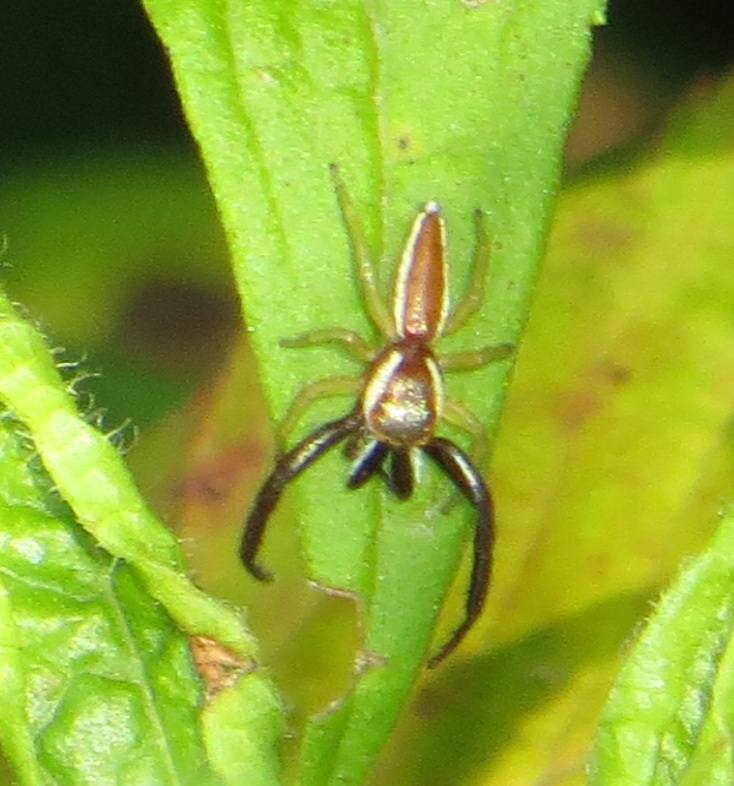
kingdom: Animalia
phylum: Arthropoda
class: Arachnida
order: Araneae
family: Salticidae
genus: Hentzia
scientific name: Hentzia palmarum
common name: Common hentz jumping spider
